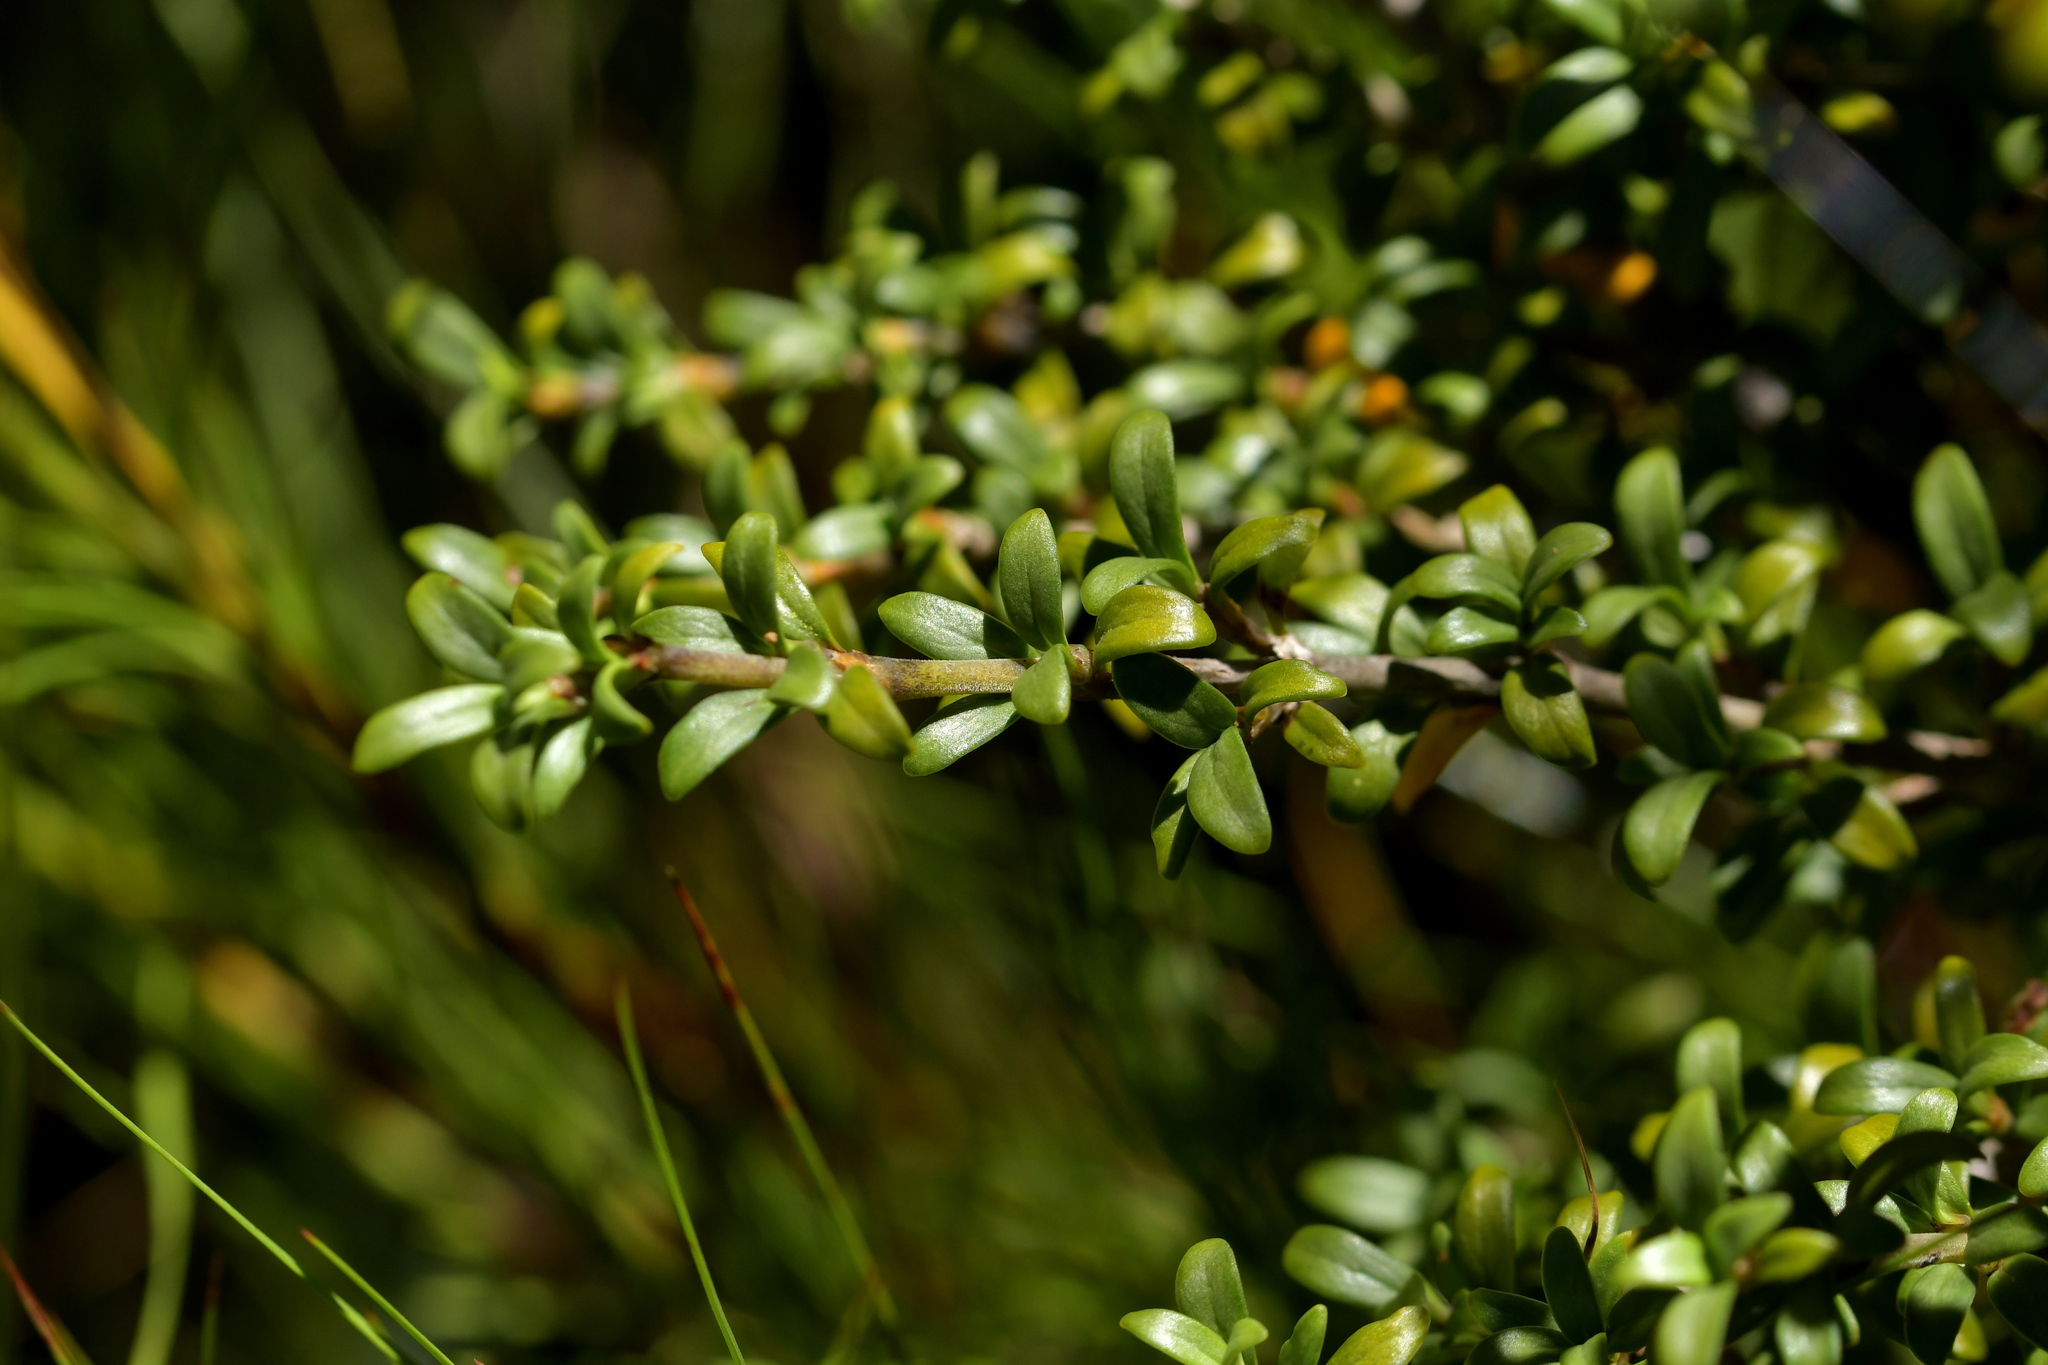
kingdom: Plantae
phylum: Tracheophyta
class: Magnoliopsida
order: Gentianales
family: Rubiaceae
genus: Coprosma
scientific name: Coprosma pseudocuneata
